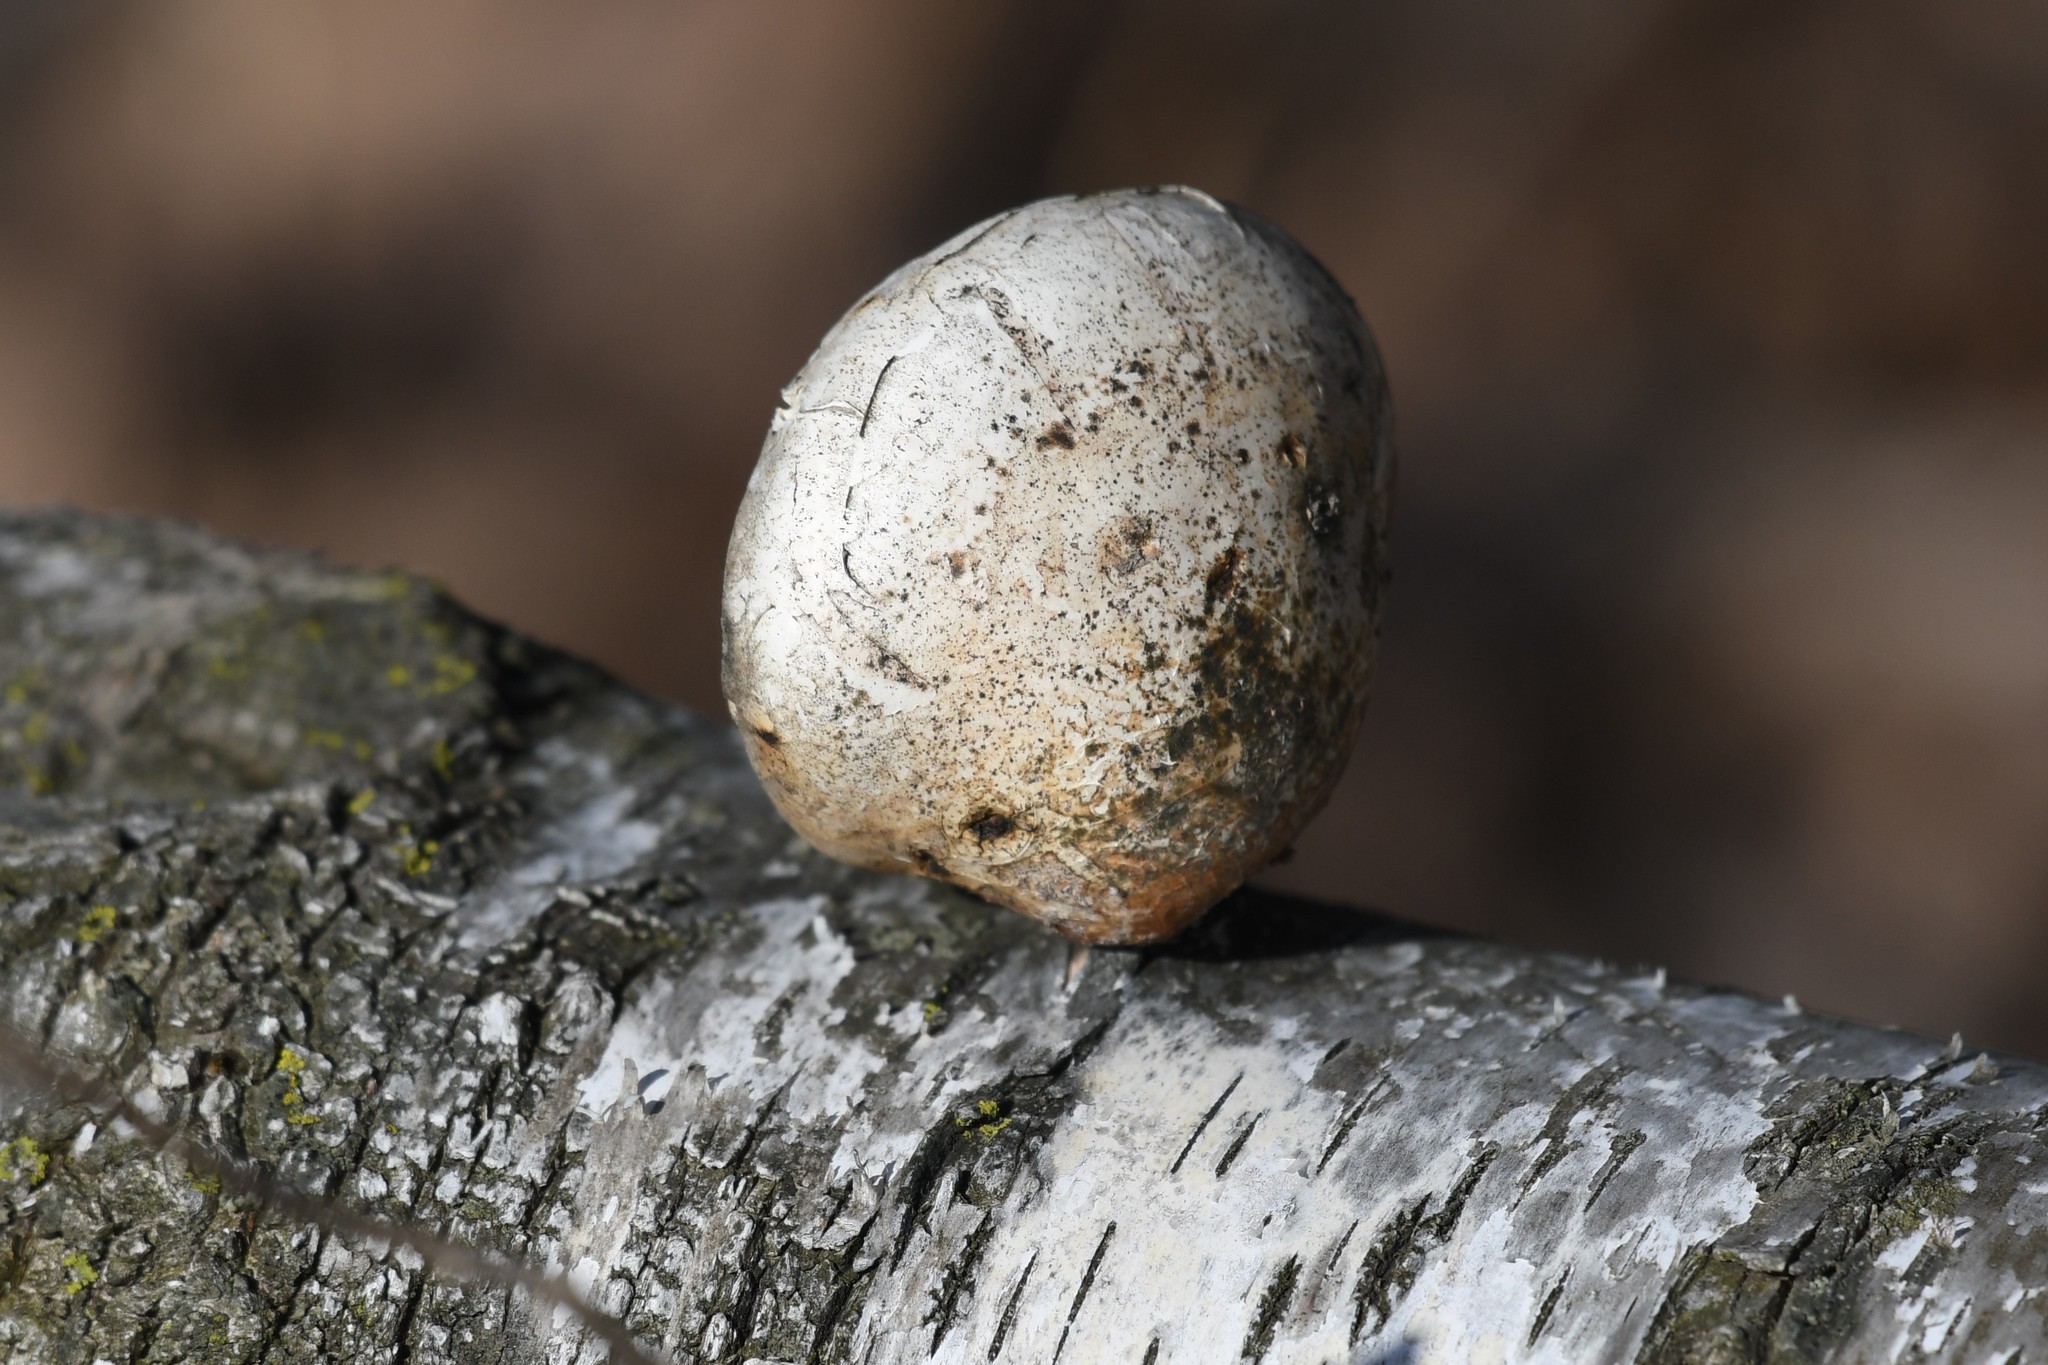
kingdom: Fungi
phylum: Basidiomycota
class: Agaricomycetes
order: Polyporales
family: Fomitopsidaceae
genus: Fomitopsis
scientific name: Fomitopsis betulina
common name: Birch polypore
